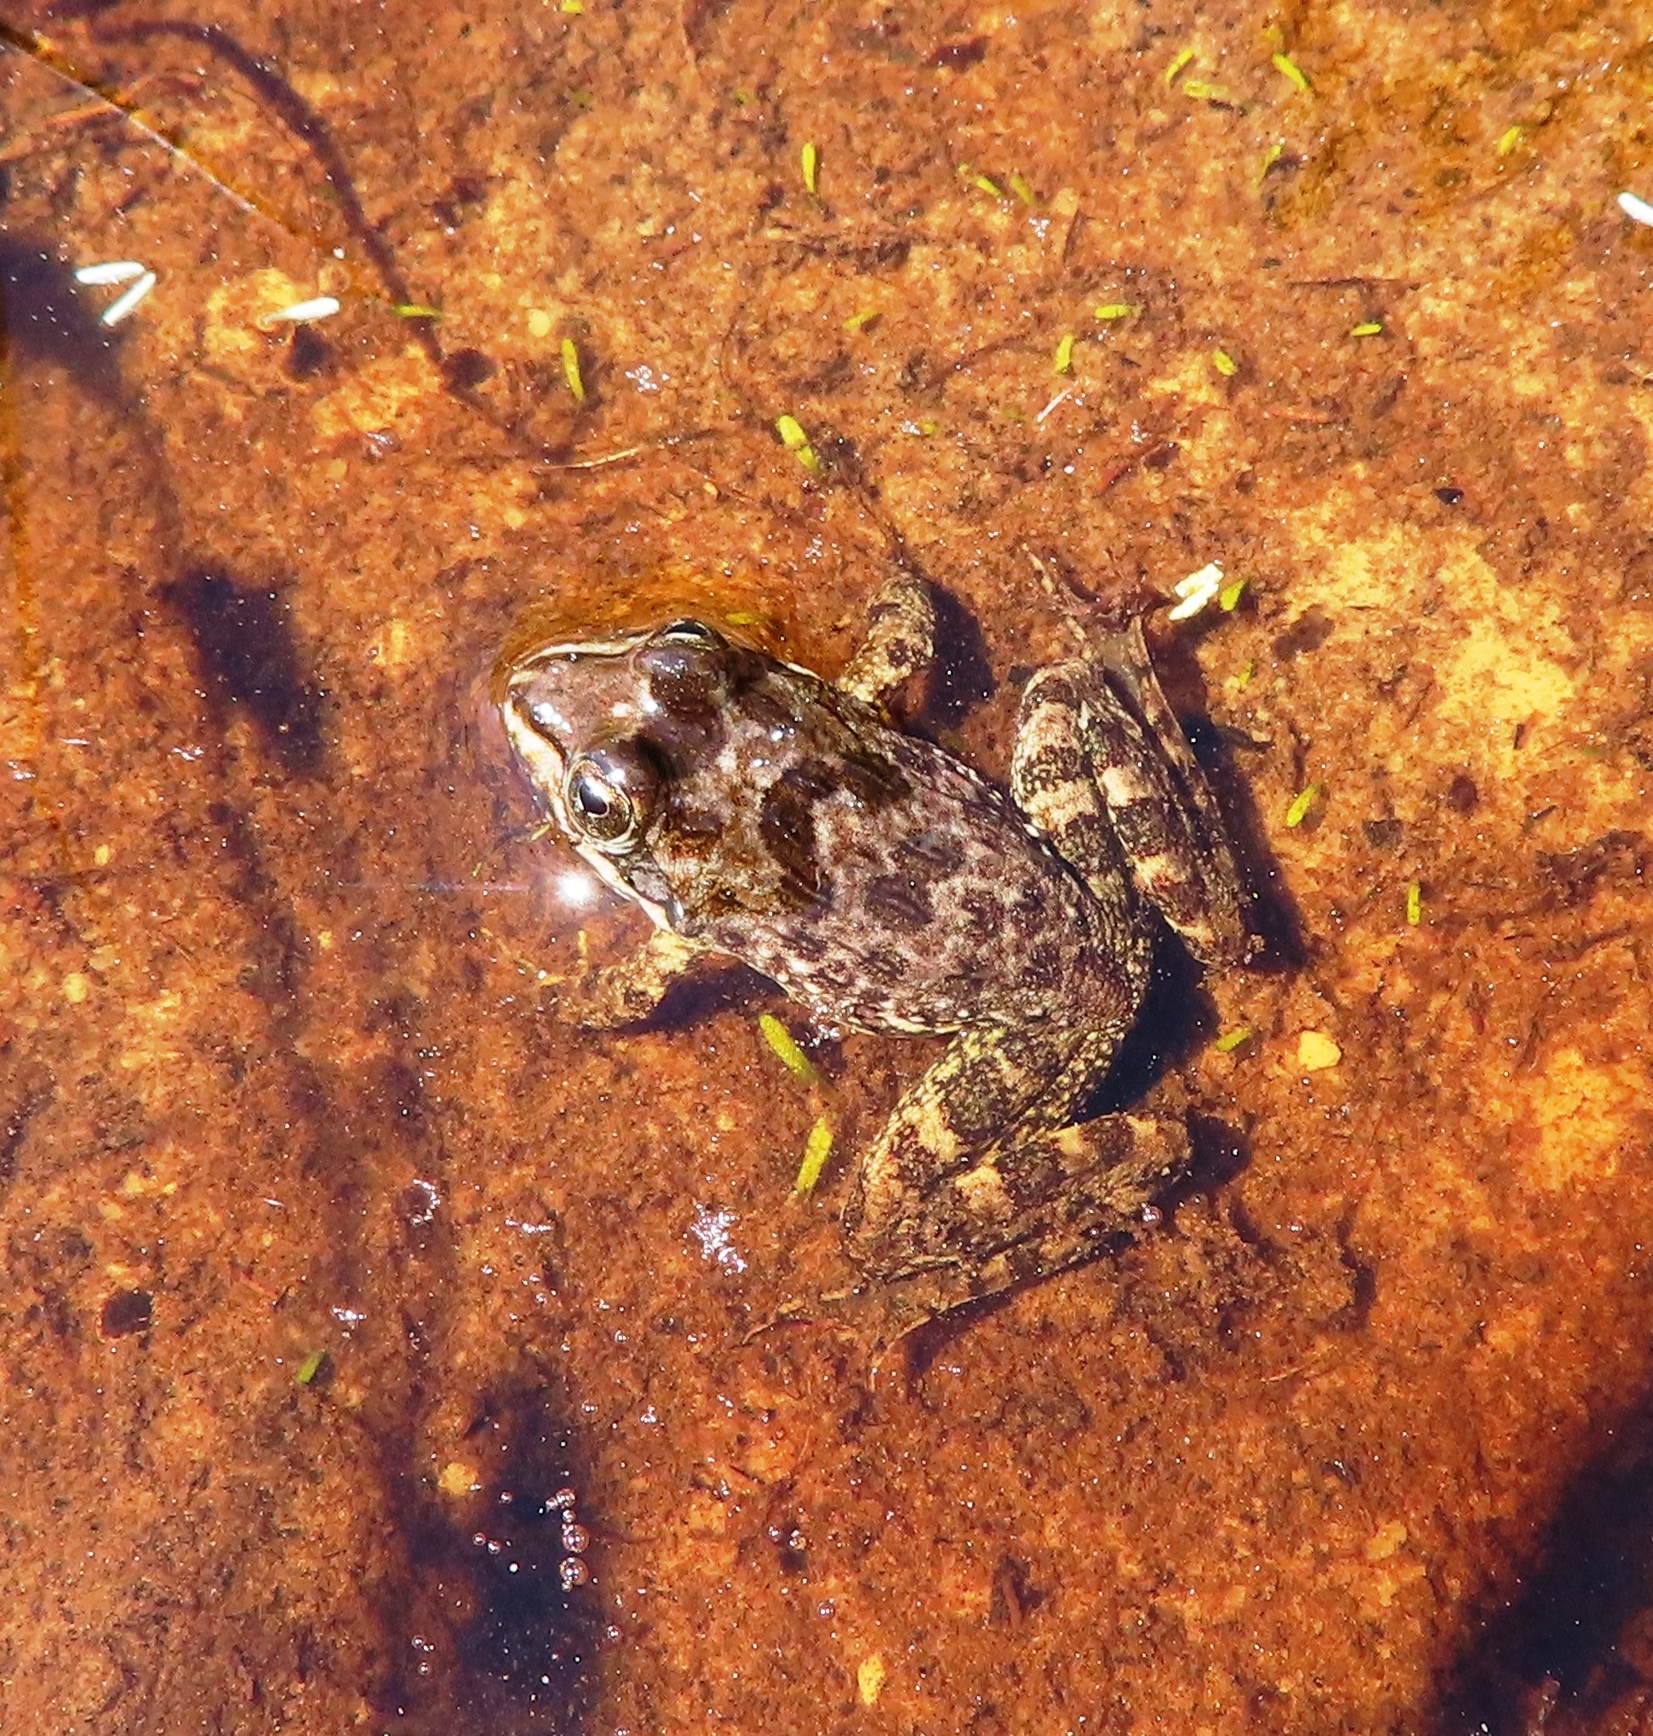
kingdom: Animalia
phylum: Chordata
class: Amphibia
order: Anura
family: Pyxicephalidae
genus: Amietia
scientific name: Amietia fuscigula
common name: Cape rana
